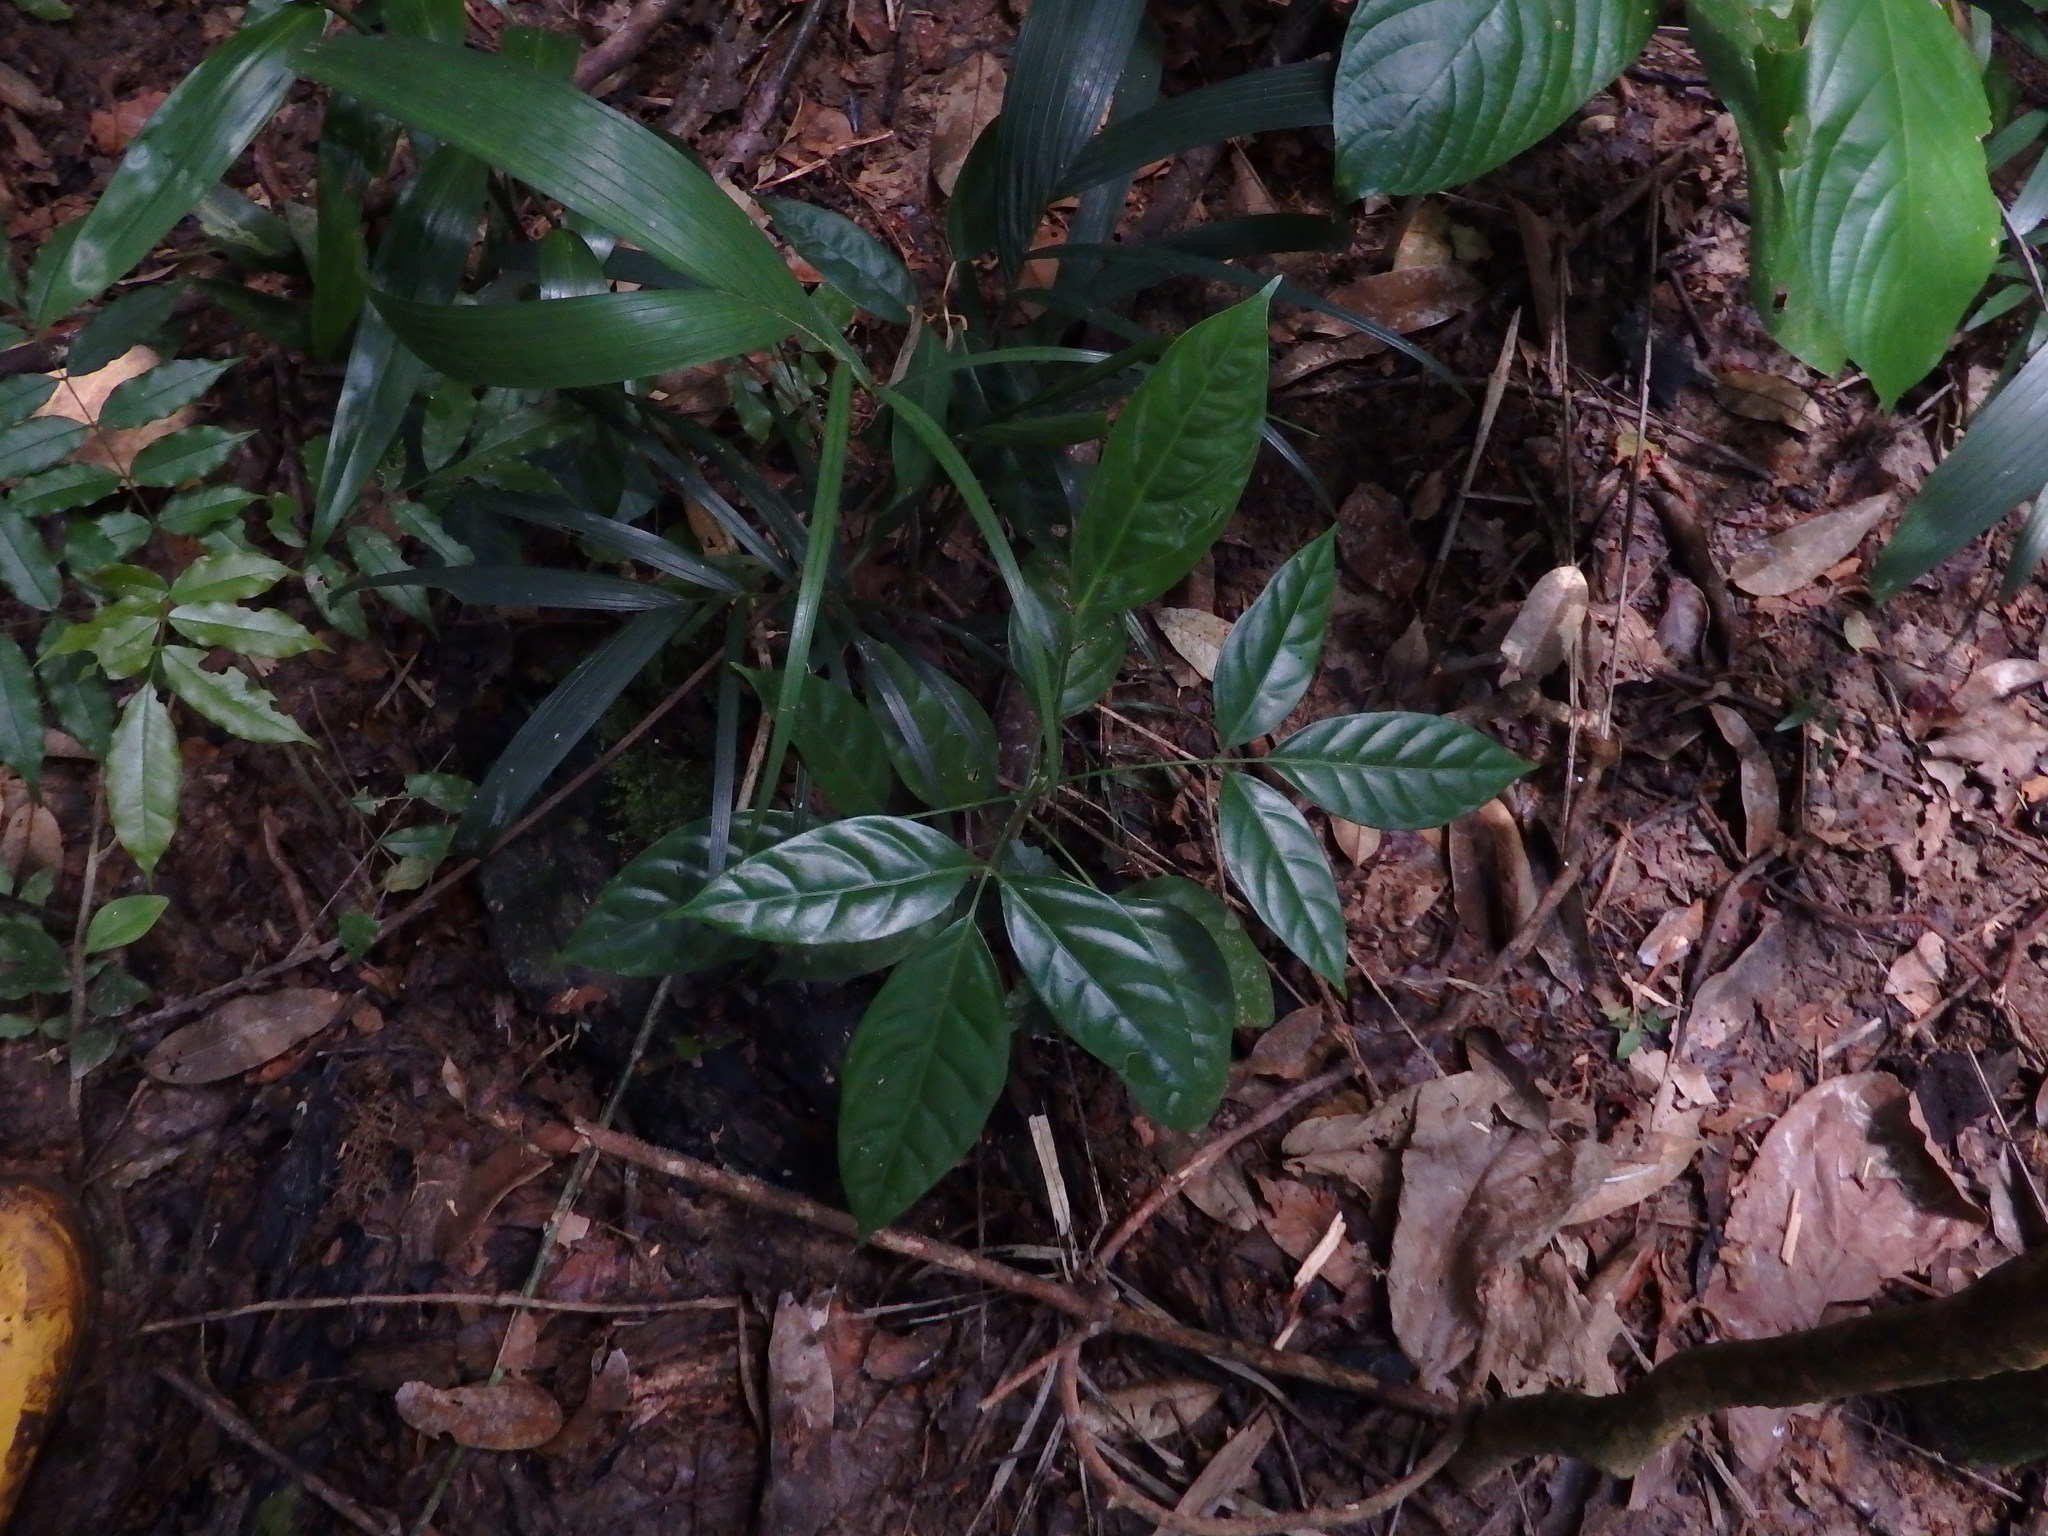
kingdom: Plantae
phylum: Tracheophyta
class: Magnoliopsida
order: Apiales
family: Araliaceae
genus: Polyscias
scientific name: Polyscias diversifolia
